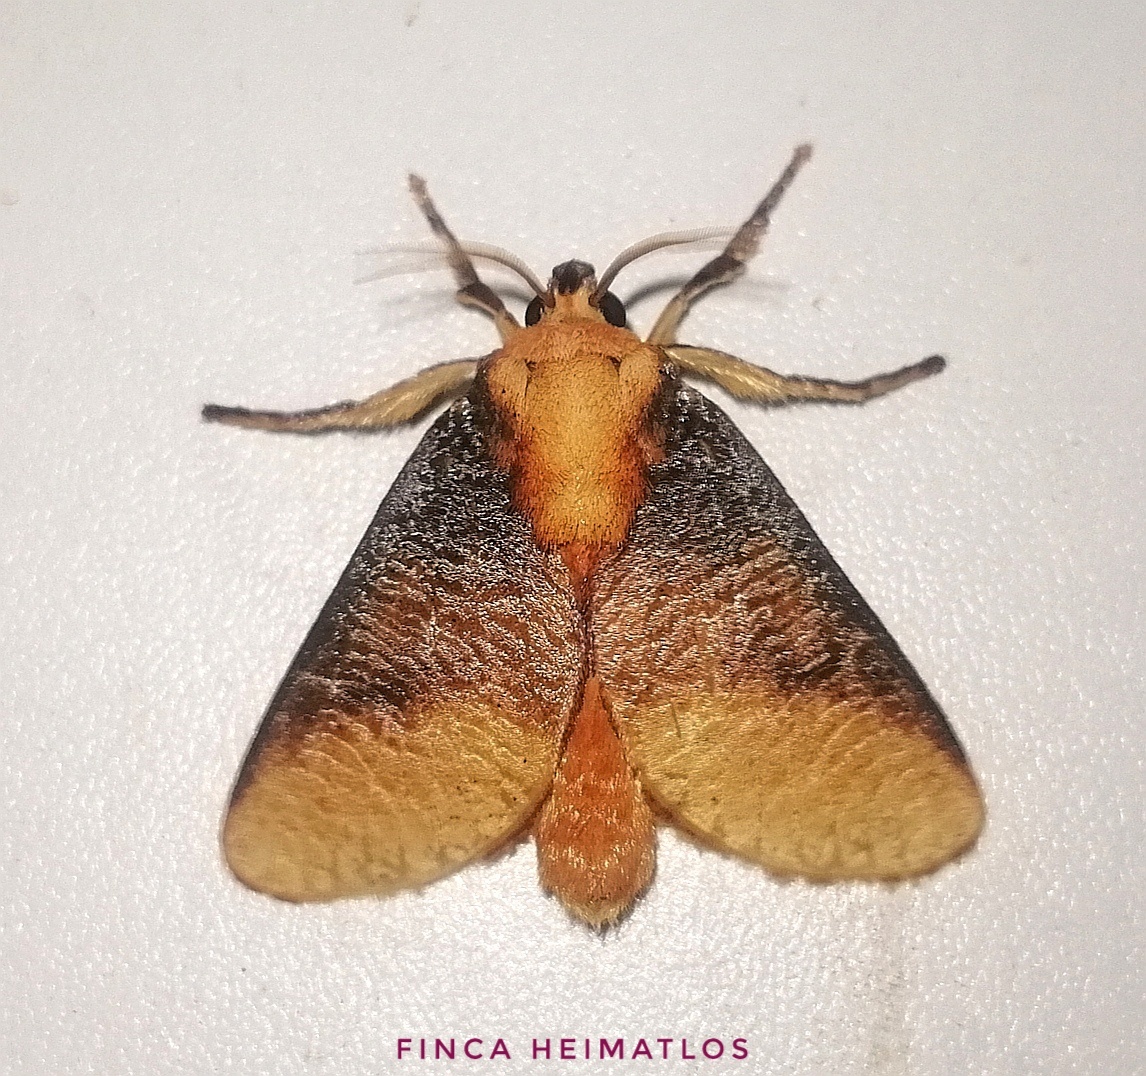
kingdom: Animalia
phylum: Arthropoda
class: Insecta
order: Lepidoptera
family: Limacodidae
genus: Ulamia
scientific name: Ulamia sericea
